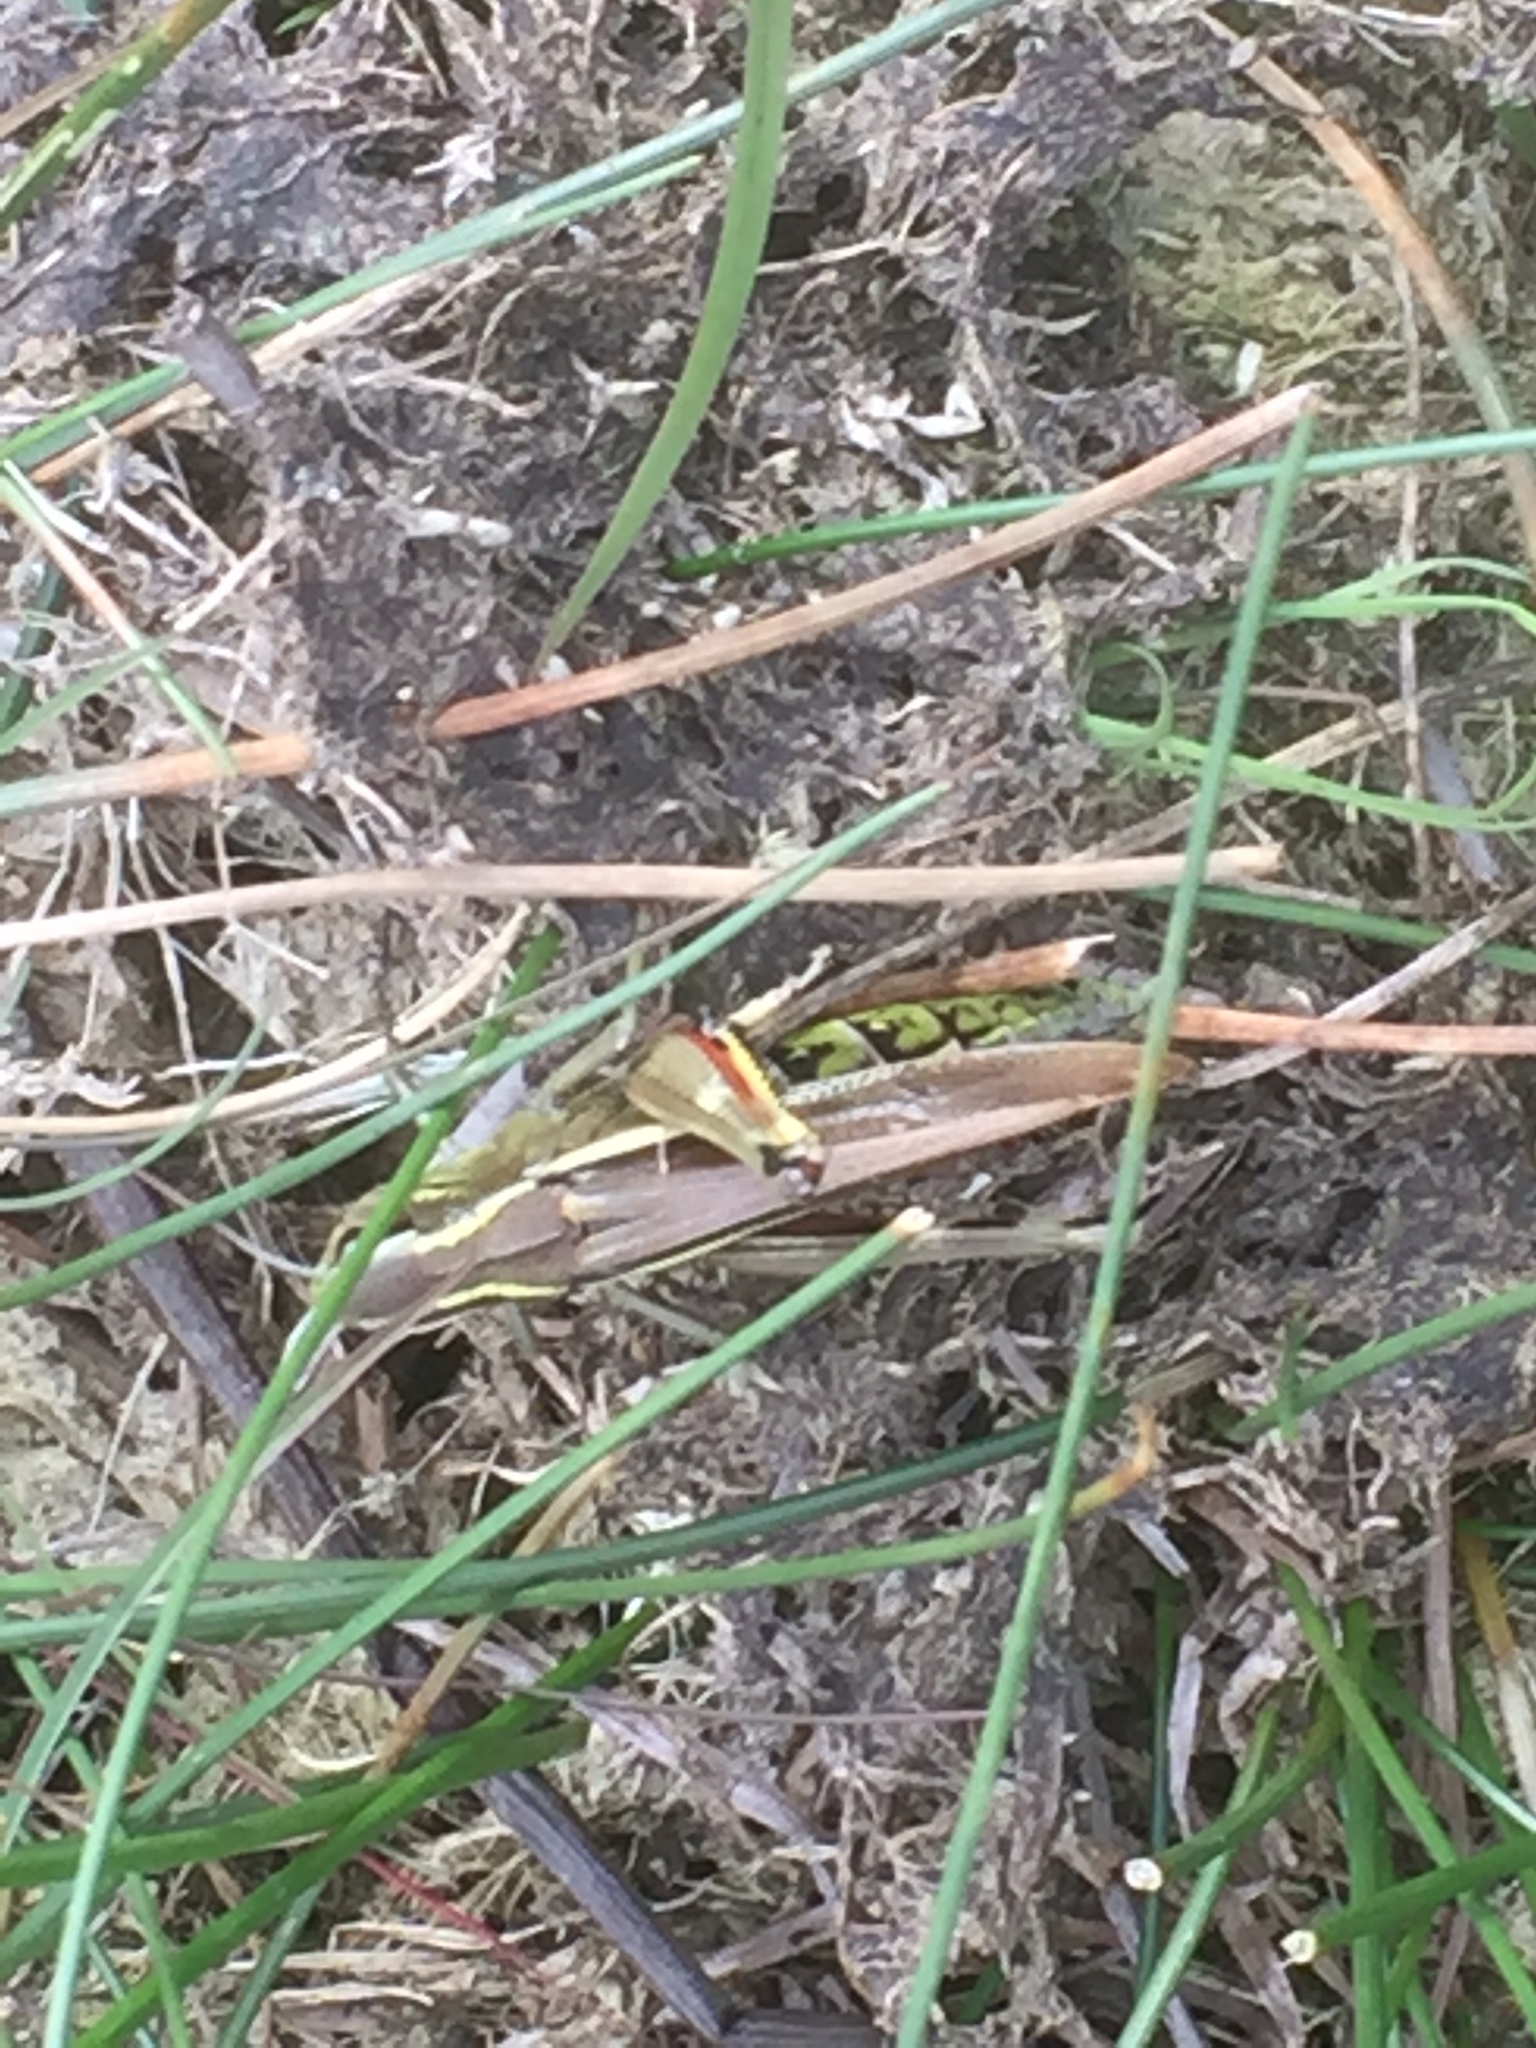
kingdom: Animalia
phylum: Arthropoda
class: Insecta
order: Orthoptera
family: Acrididae
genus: Stethophyma
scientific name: Stethophyma grossum
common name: Large marsh grasshopper
